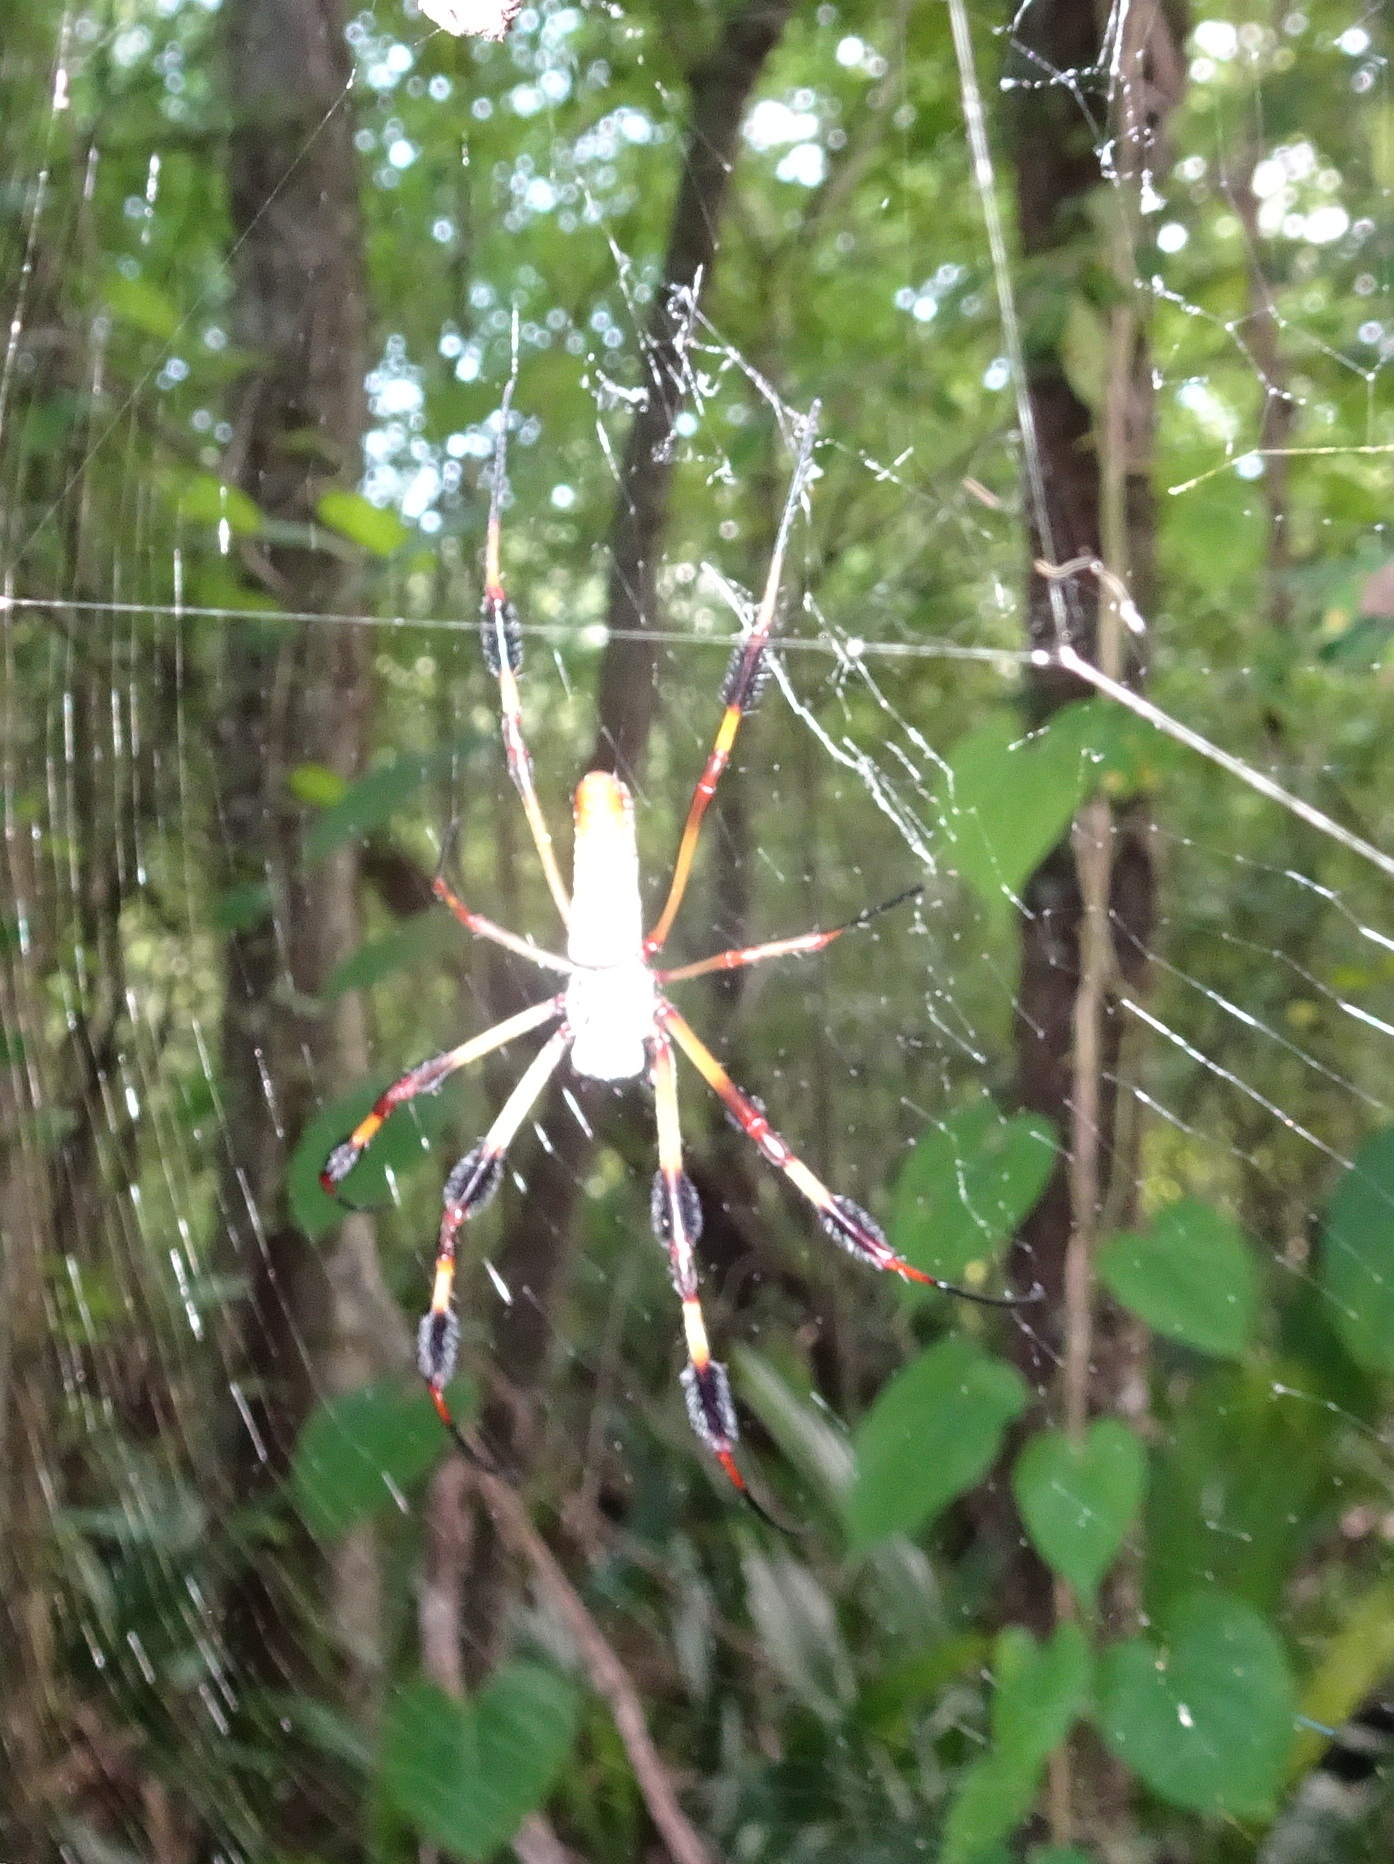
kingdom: Animalia
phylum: Arthropoda
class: Arachnida
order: Araneae
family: Araneidae
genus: Trichonephila
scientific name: Trichonephila clavipes
